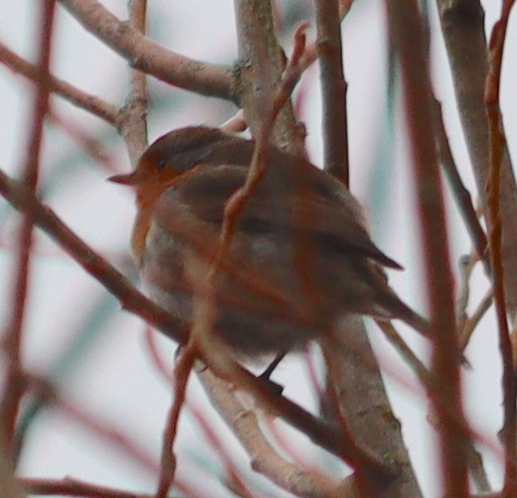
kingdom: Animalia
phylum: Chordata
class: Aves
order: Passeriformes
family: Muscicapidae
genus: Erithacus
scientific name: Erithacus rubecula
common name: European robin
